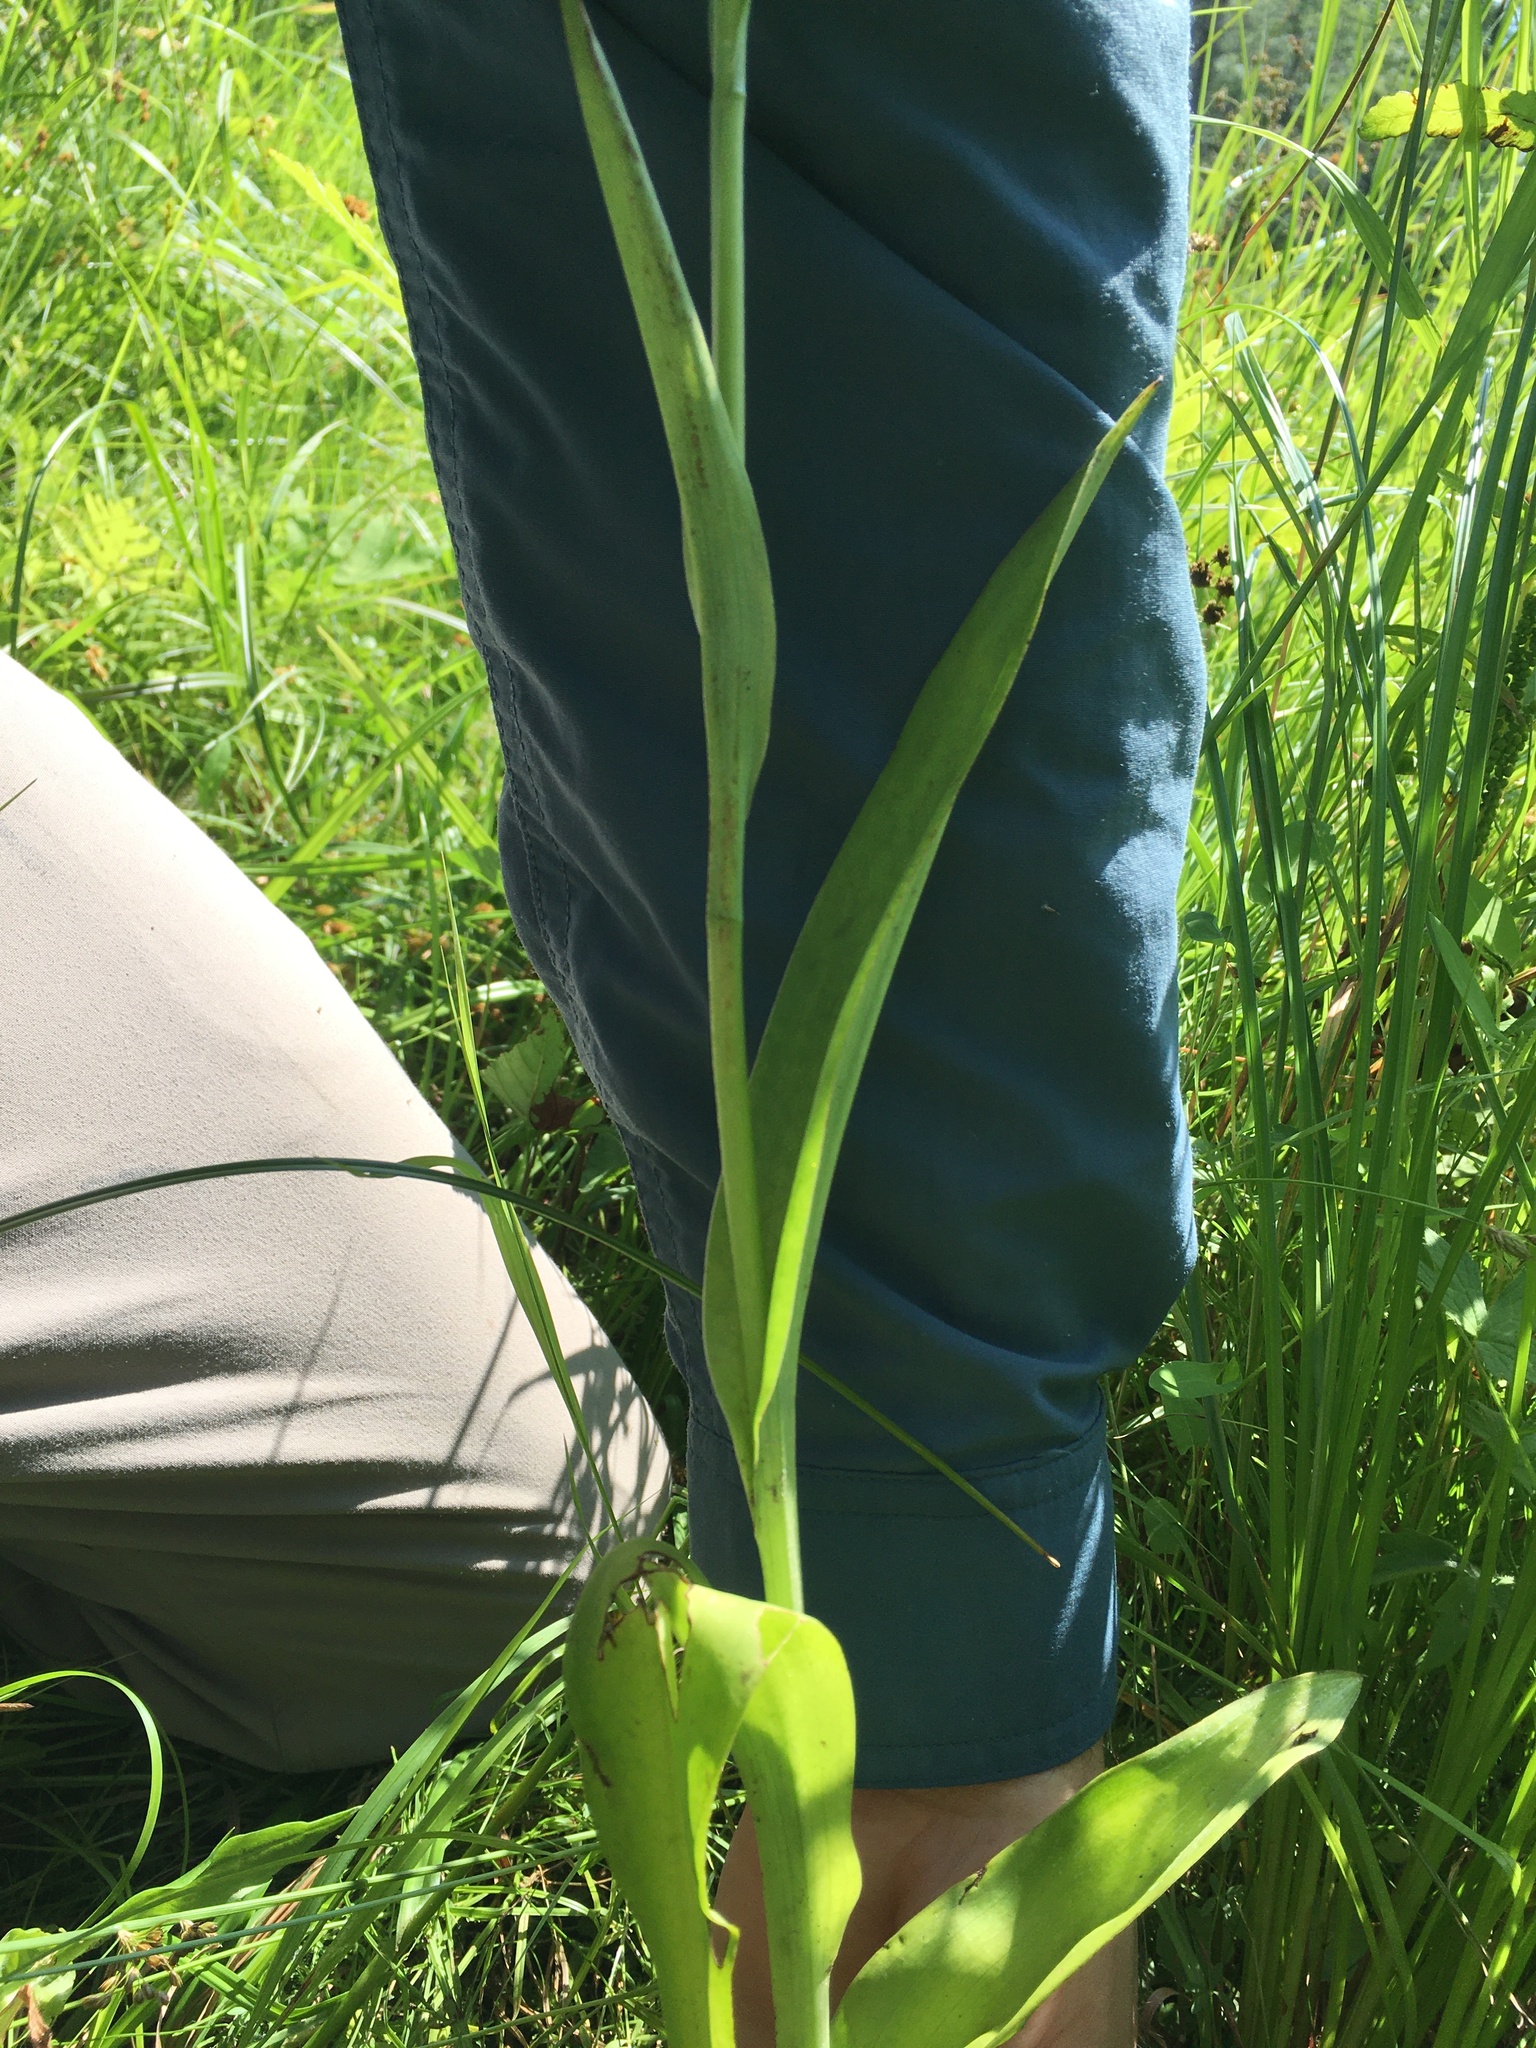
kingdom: Plantae
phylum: Tracheophyta
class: Liliopsida
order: Asparagales
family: Orchidaceae
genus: Platanthera
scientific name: Platanthera psycodes
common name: Lesser purple fringed orchid
